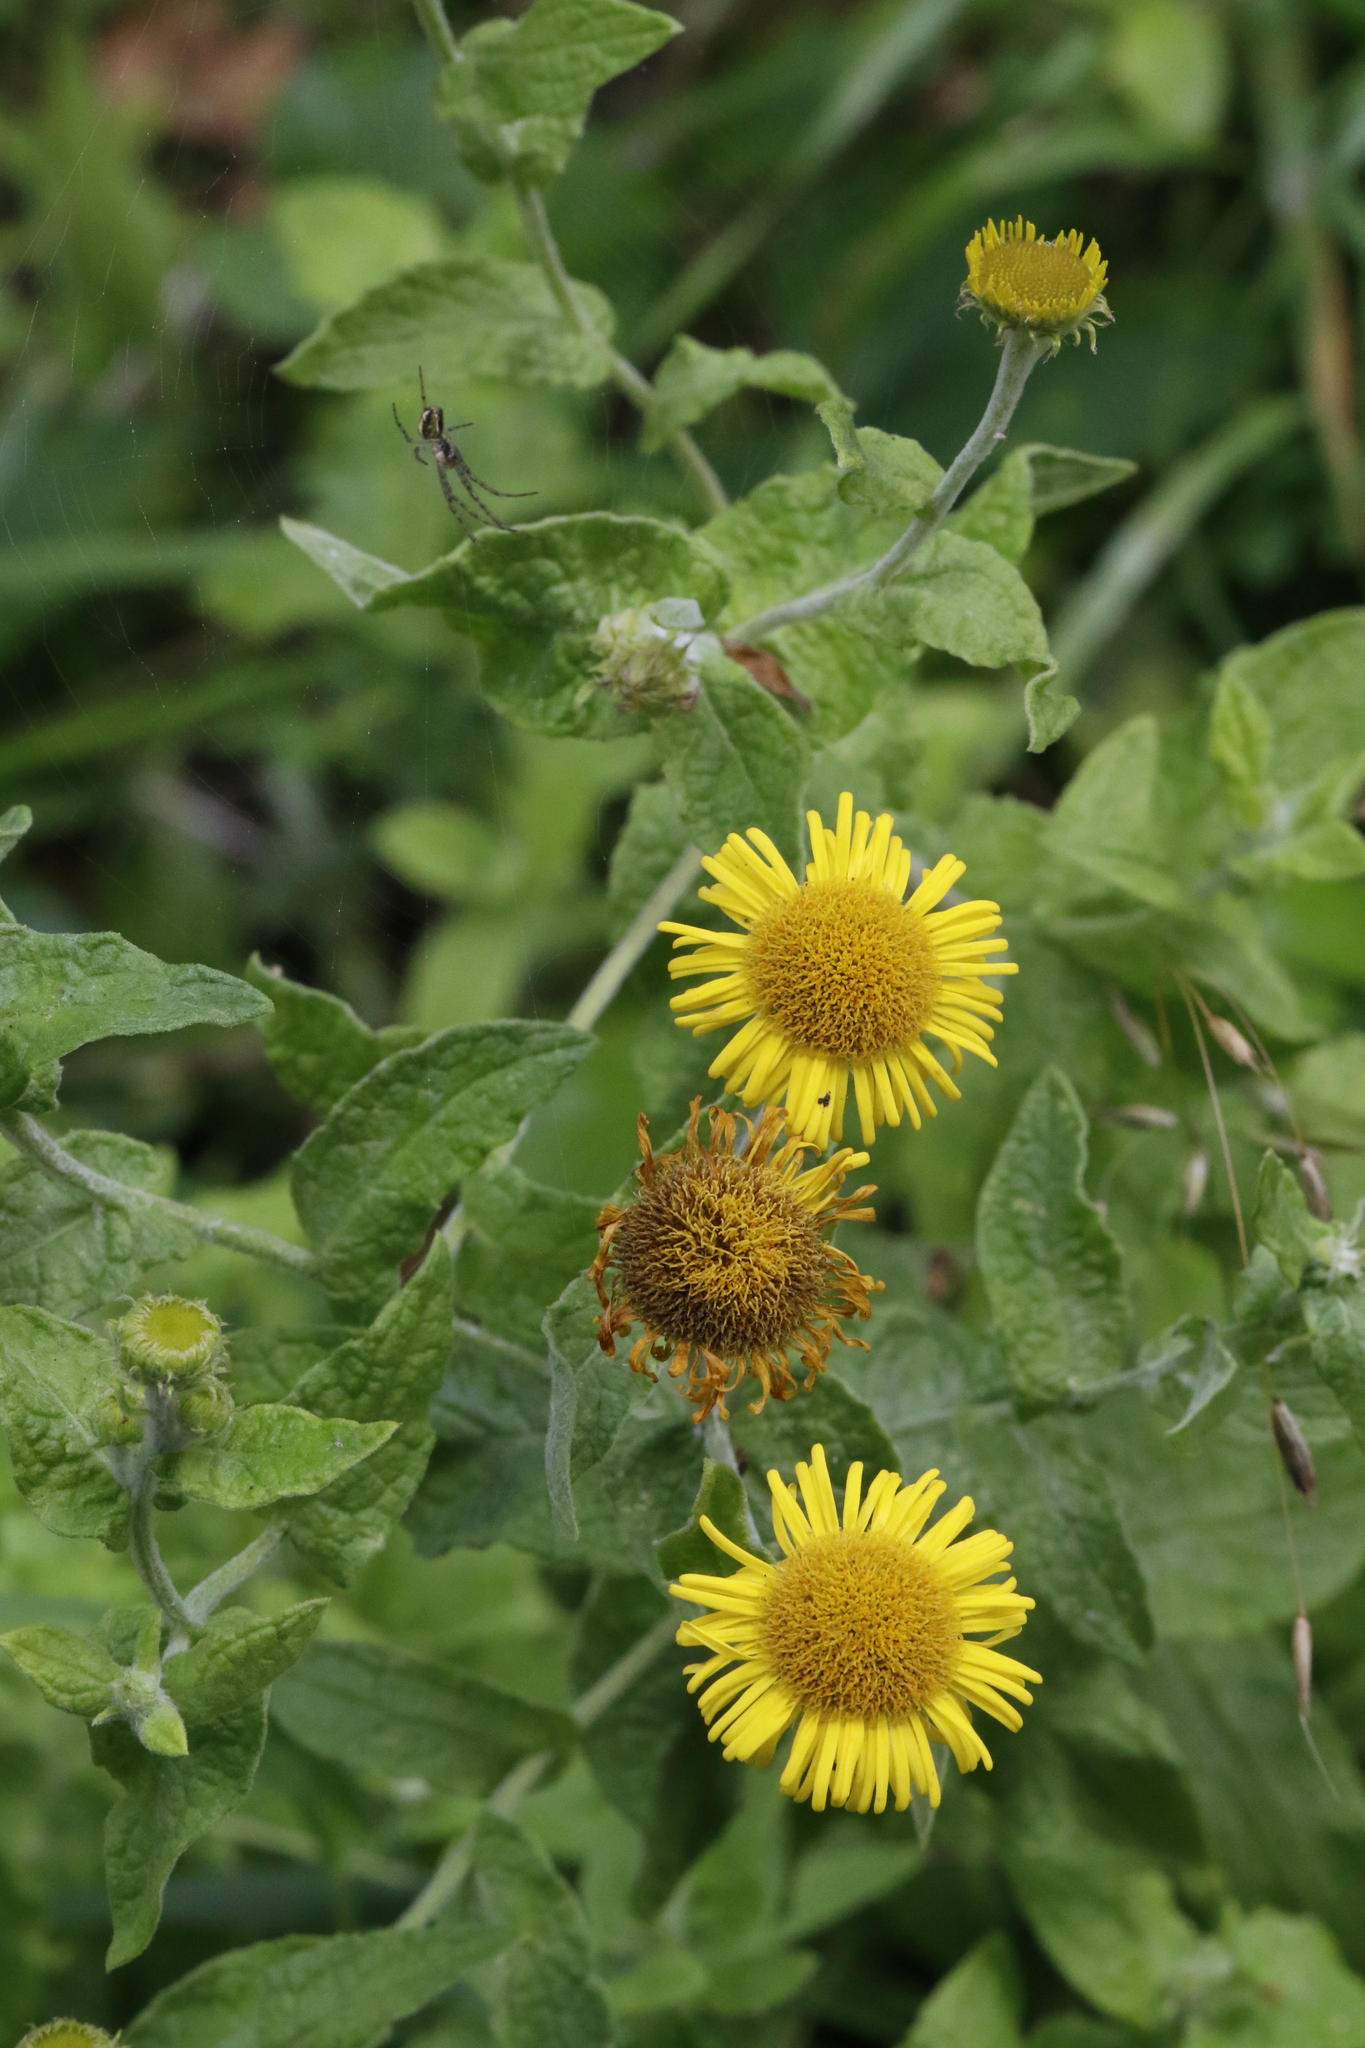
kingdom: Plantae
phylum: Tracheophyta
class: Magnoliopsida
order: Asterales
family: Asteraceae
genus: Pulicaria
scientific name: Pulicaria dysenterica
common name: Common fleabane
